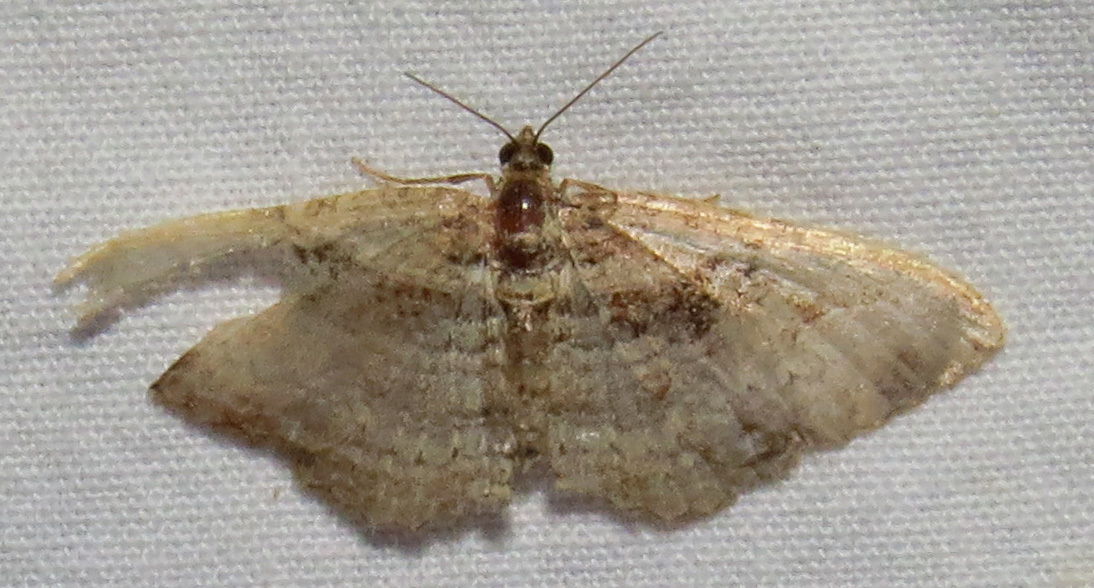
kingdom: Animalia
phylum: Arthropoda
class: Insecta
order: Lepidoptera
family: Geometridae
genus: Costaconvexa
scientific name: Costaconvexa centrostrigaria
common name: Bent-line carpet
